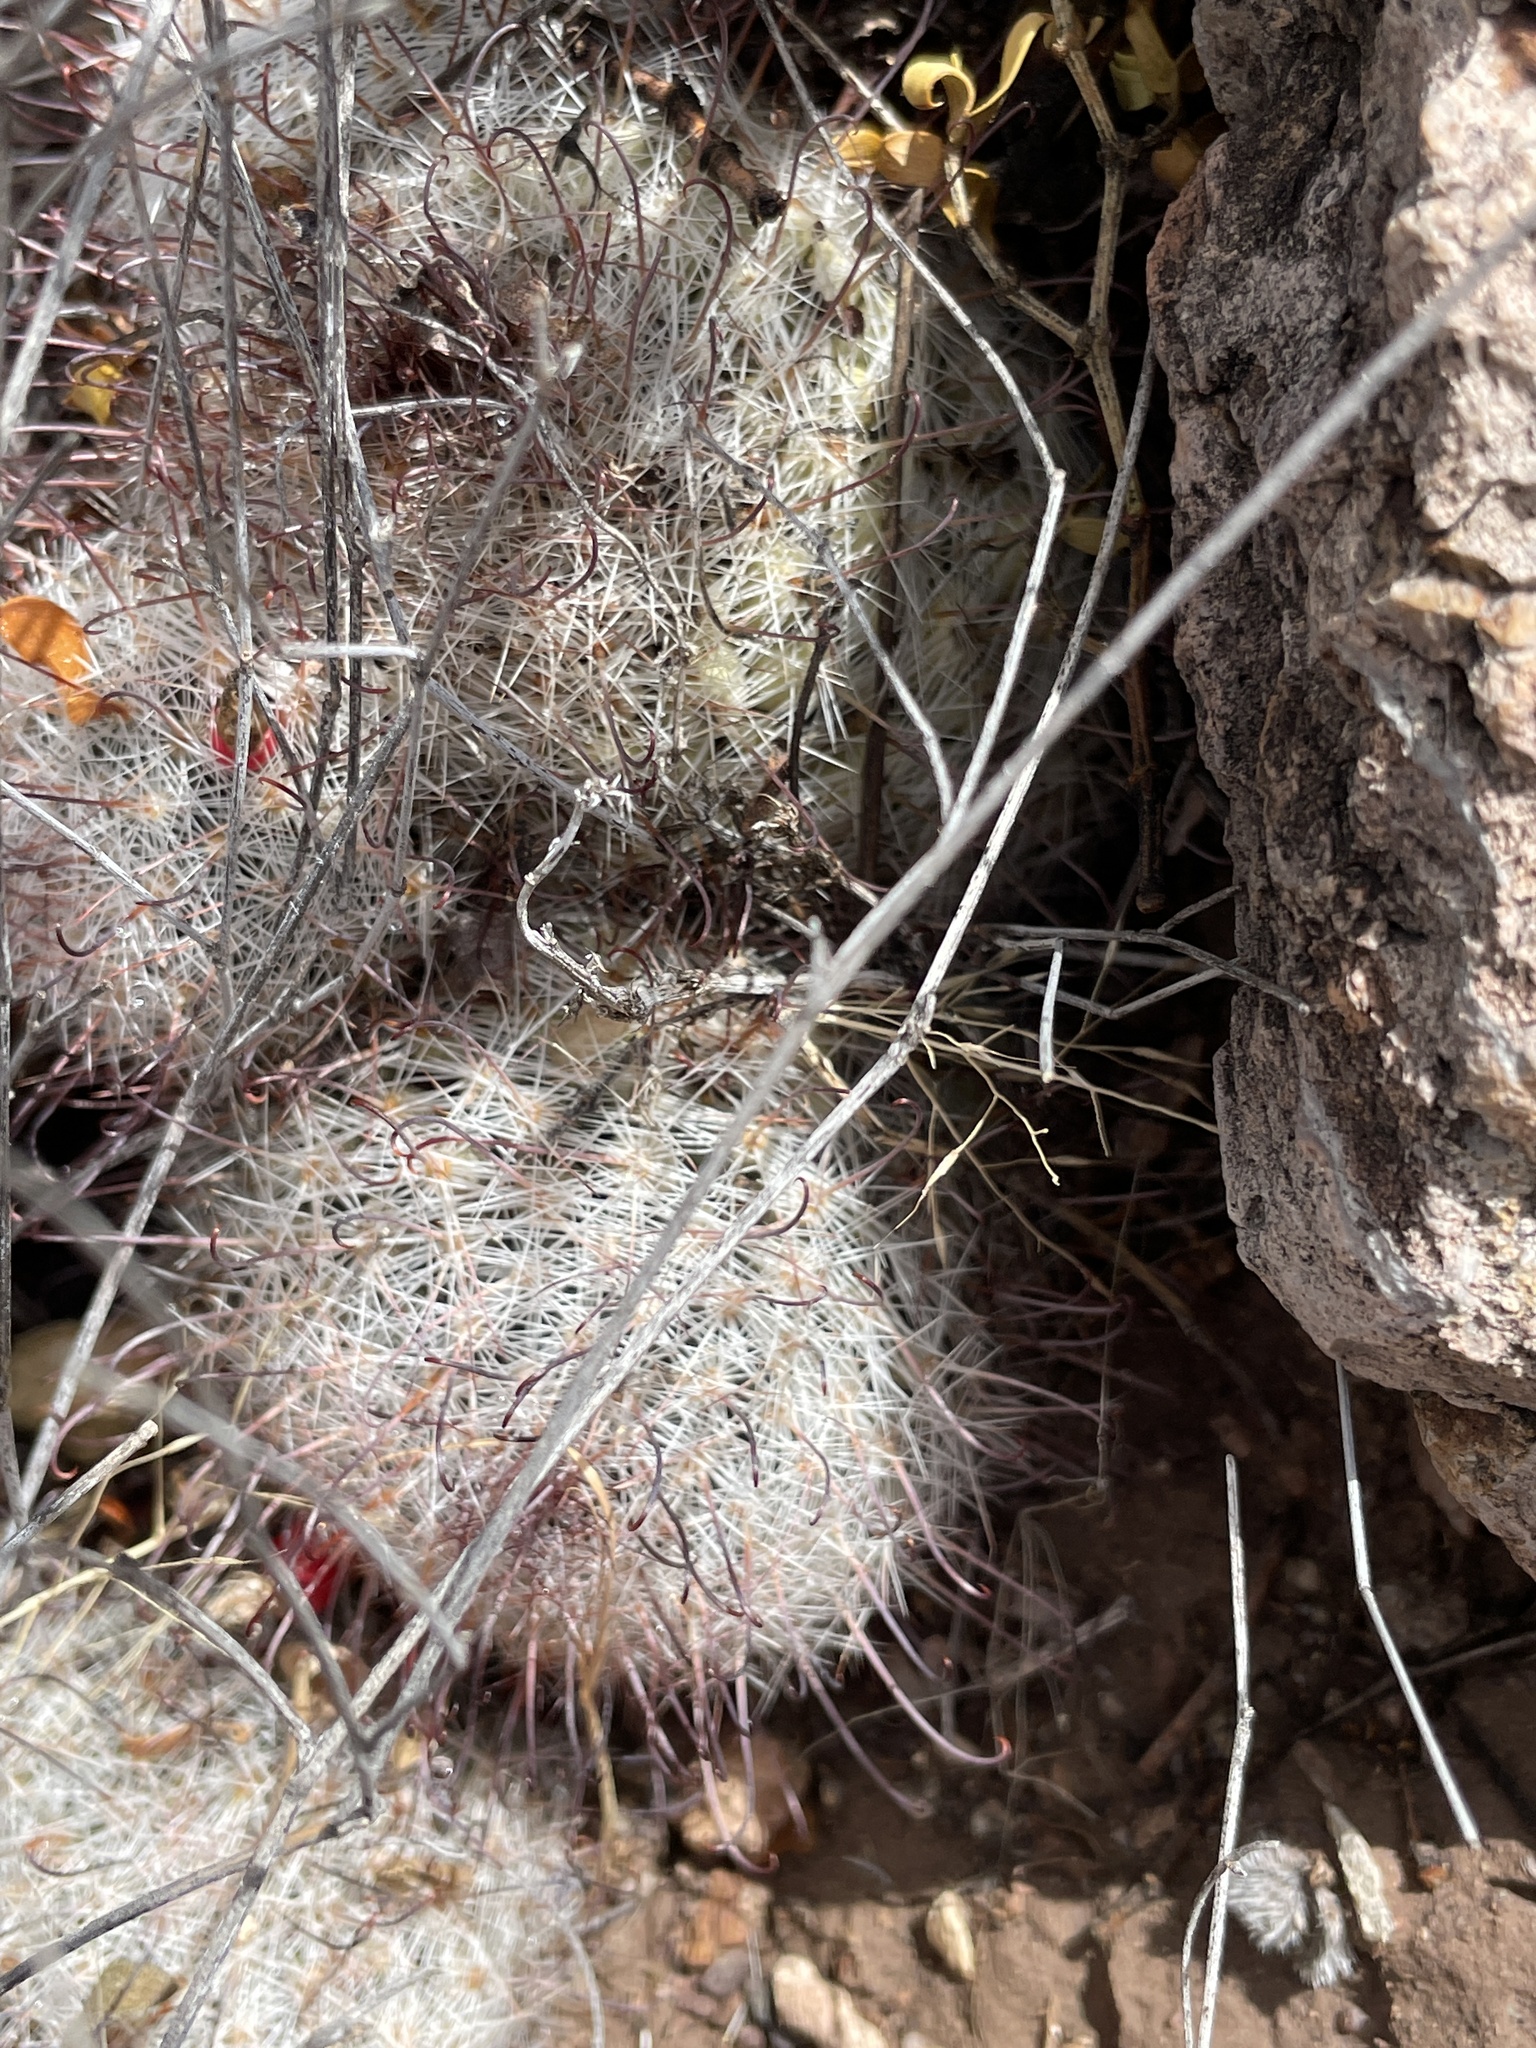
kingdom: Plantae
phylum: Tracheophyta
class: Magnoliopsida
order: Caryophyllales
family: Cactaceae
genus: Cochemiea
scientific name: Cochemiea grahamii
